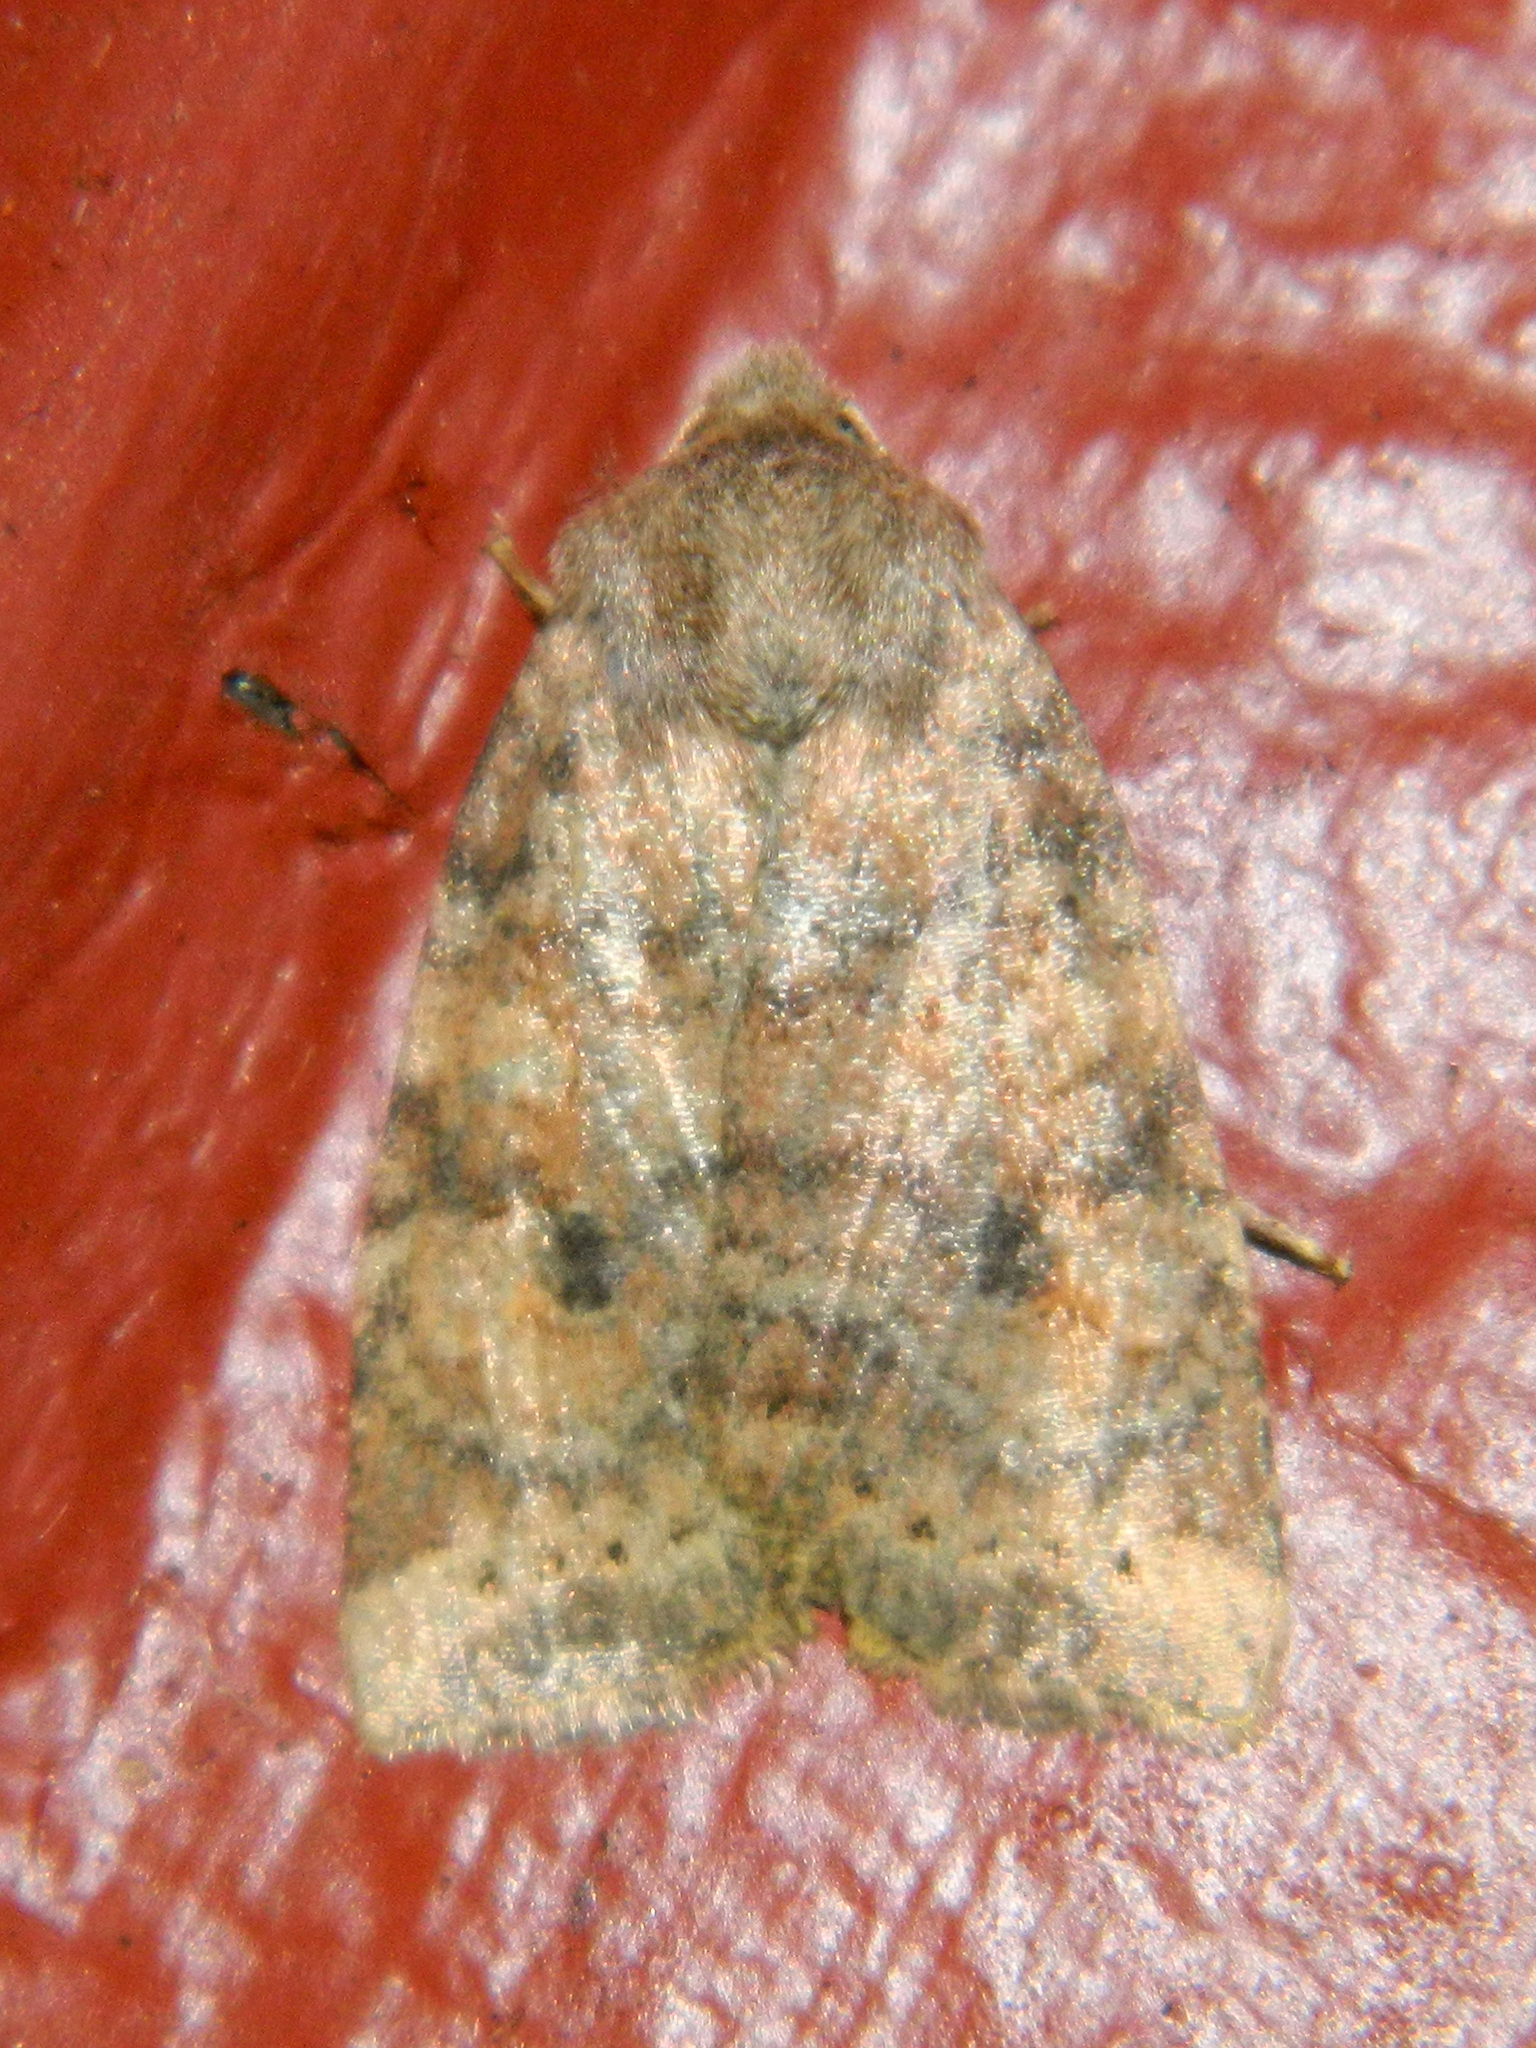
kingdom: Animalia
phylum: Arthropoda
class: Insecta
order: Lepidoptera
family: Noctuidae
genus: Anathix
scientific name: Anathix puta
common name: Puta sallow
